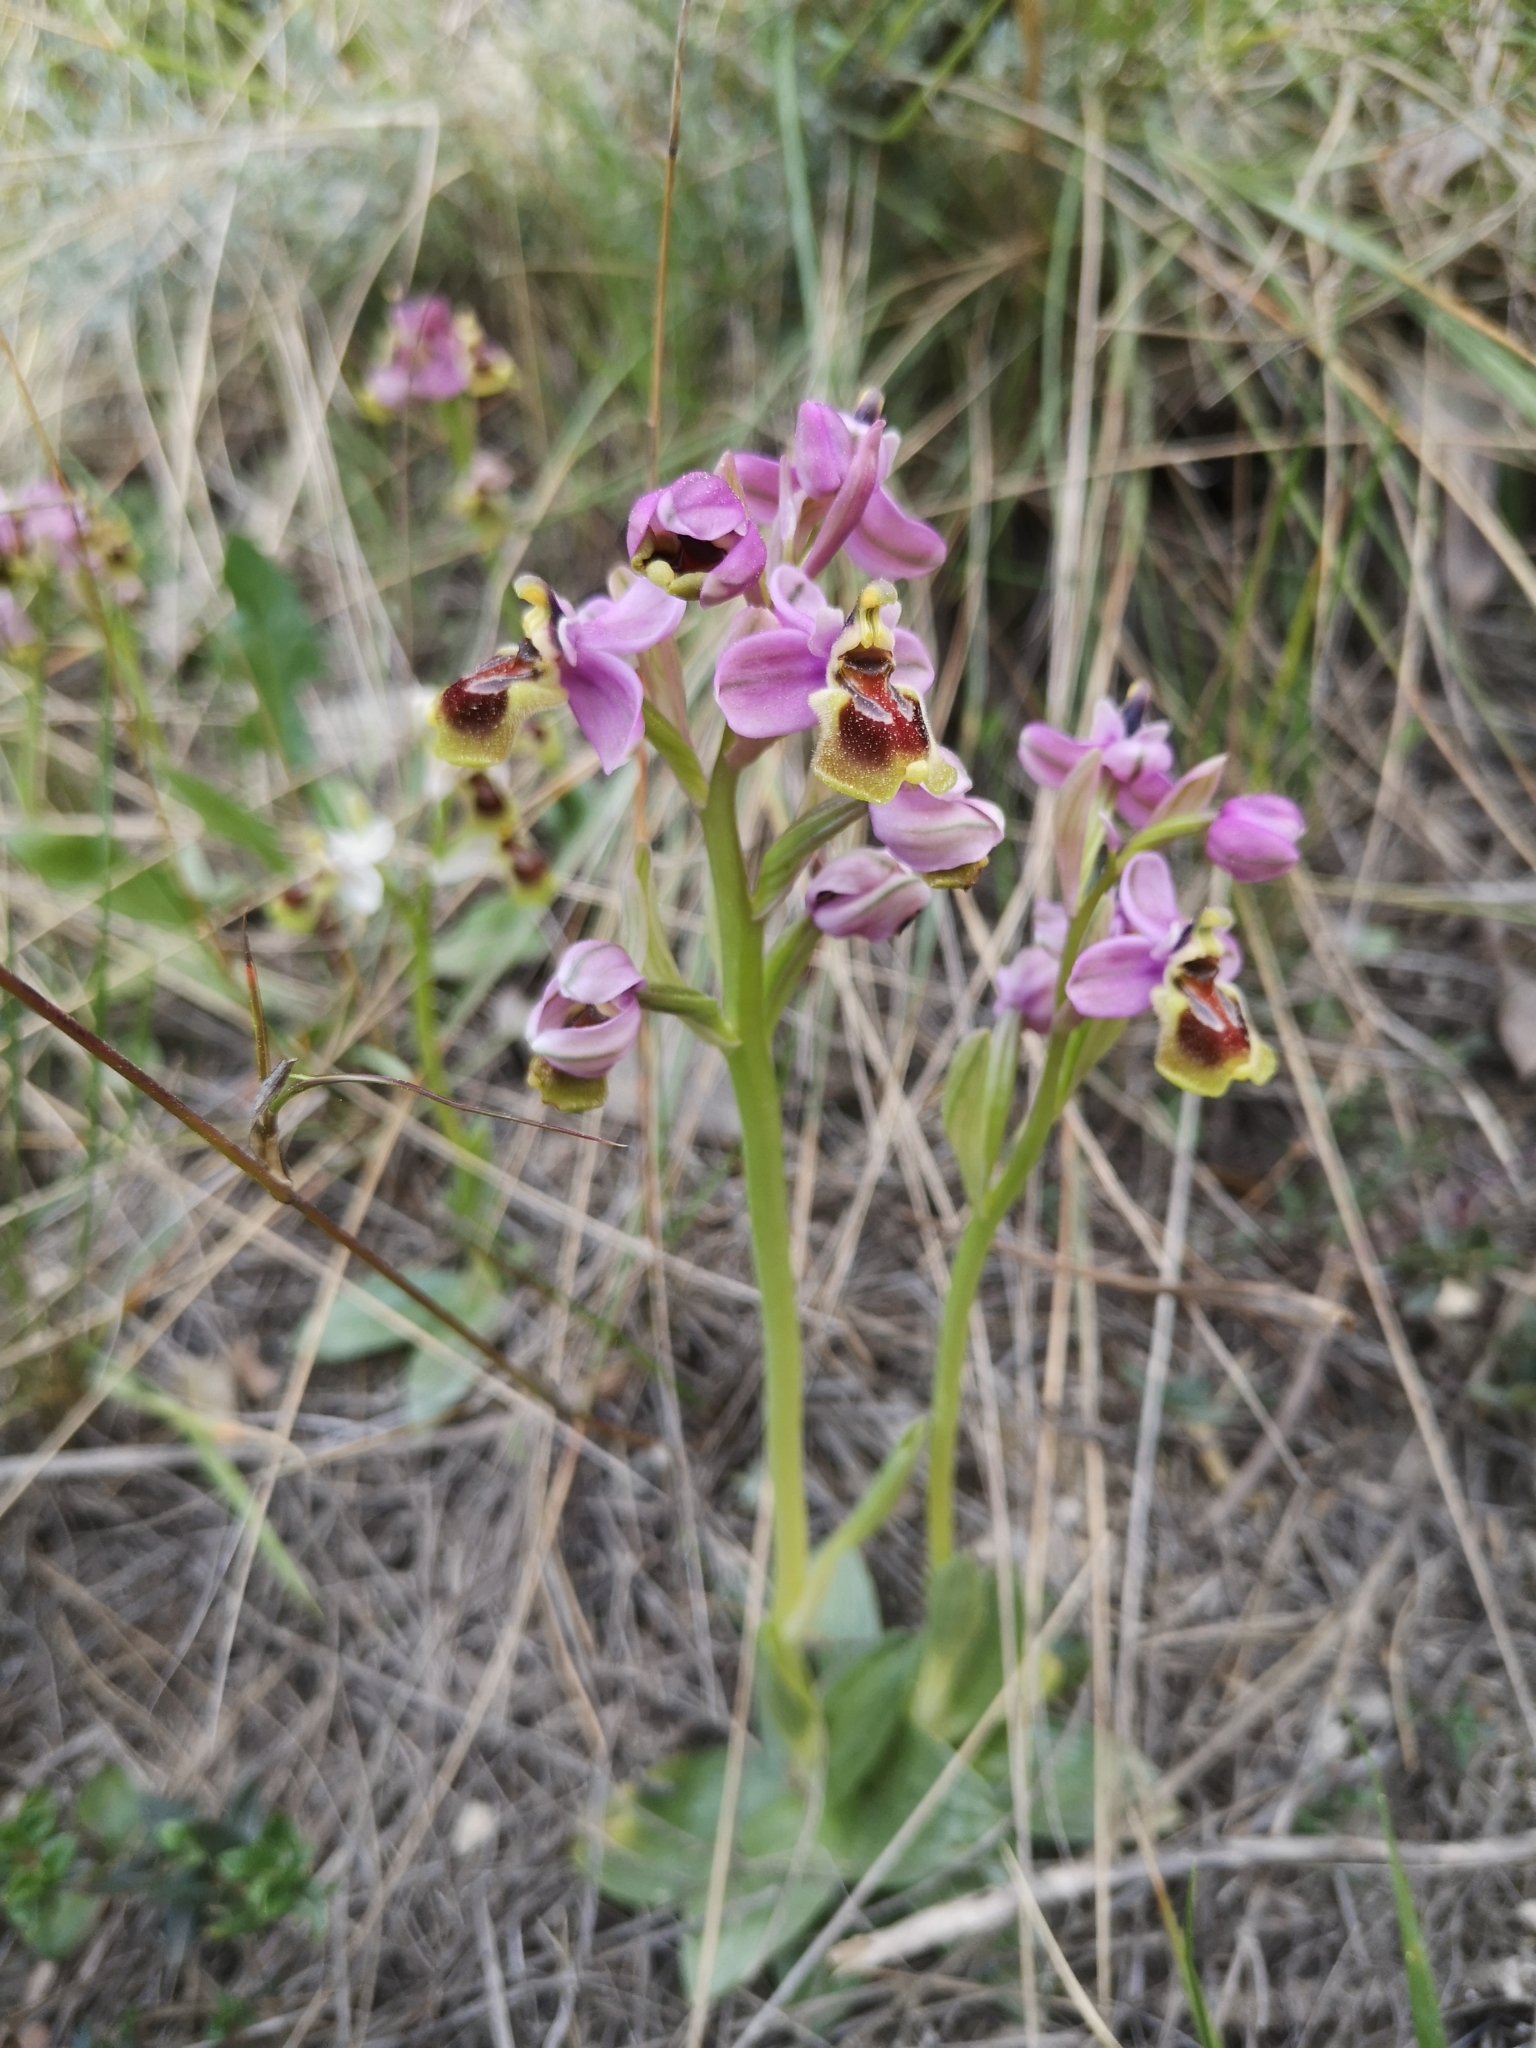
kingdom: Plantae
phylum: Tracheophyta
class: Liliopsida
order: Asparagales
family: Orchidaceae
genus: Ophrys
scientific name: Ophrys tenthredinifera
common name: Sawfly orchid
